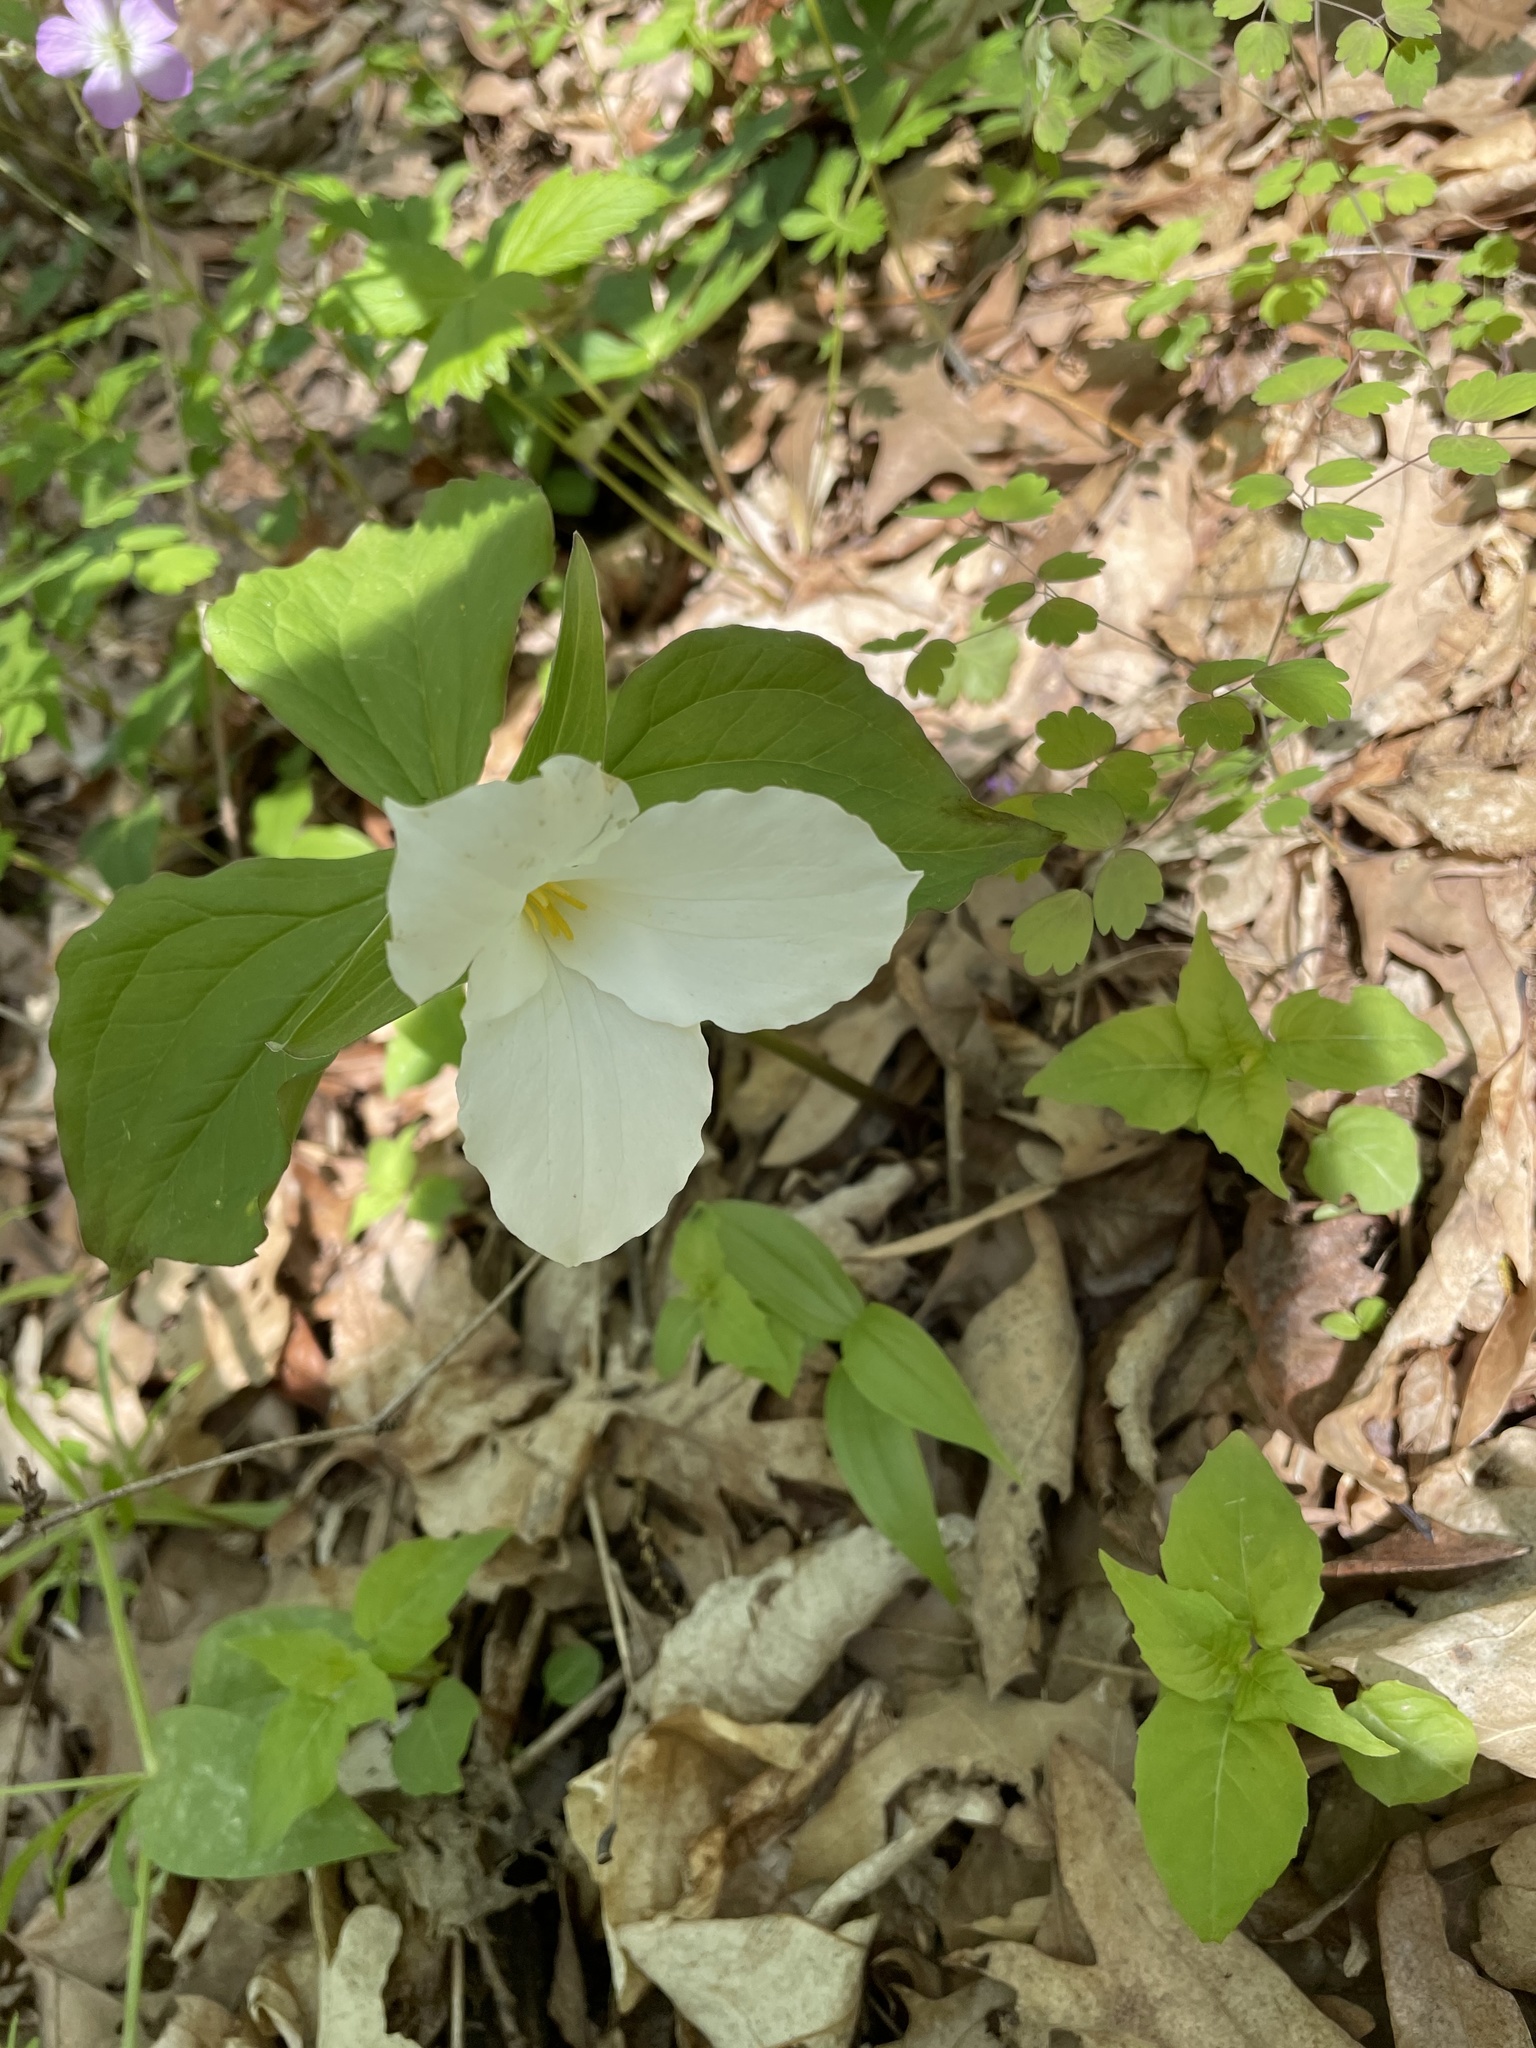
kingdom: Plantae
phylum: Tracheophyta
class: Liliopsida
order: Liliales
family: Melanthiaceae
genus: Trillium
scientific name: Trillium grandiflorum
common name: Great white trillium
